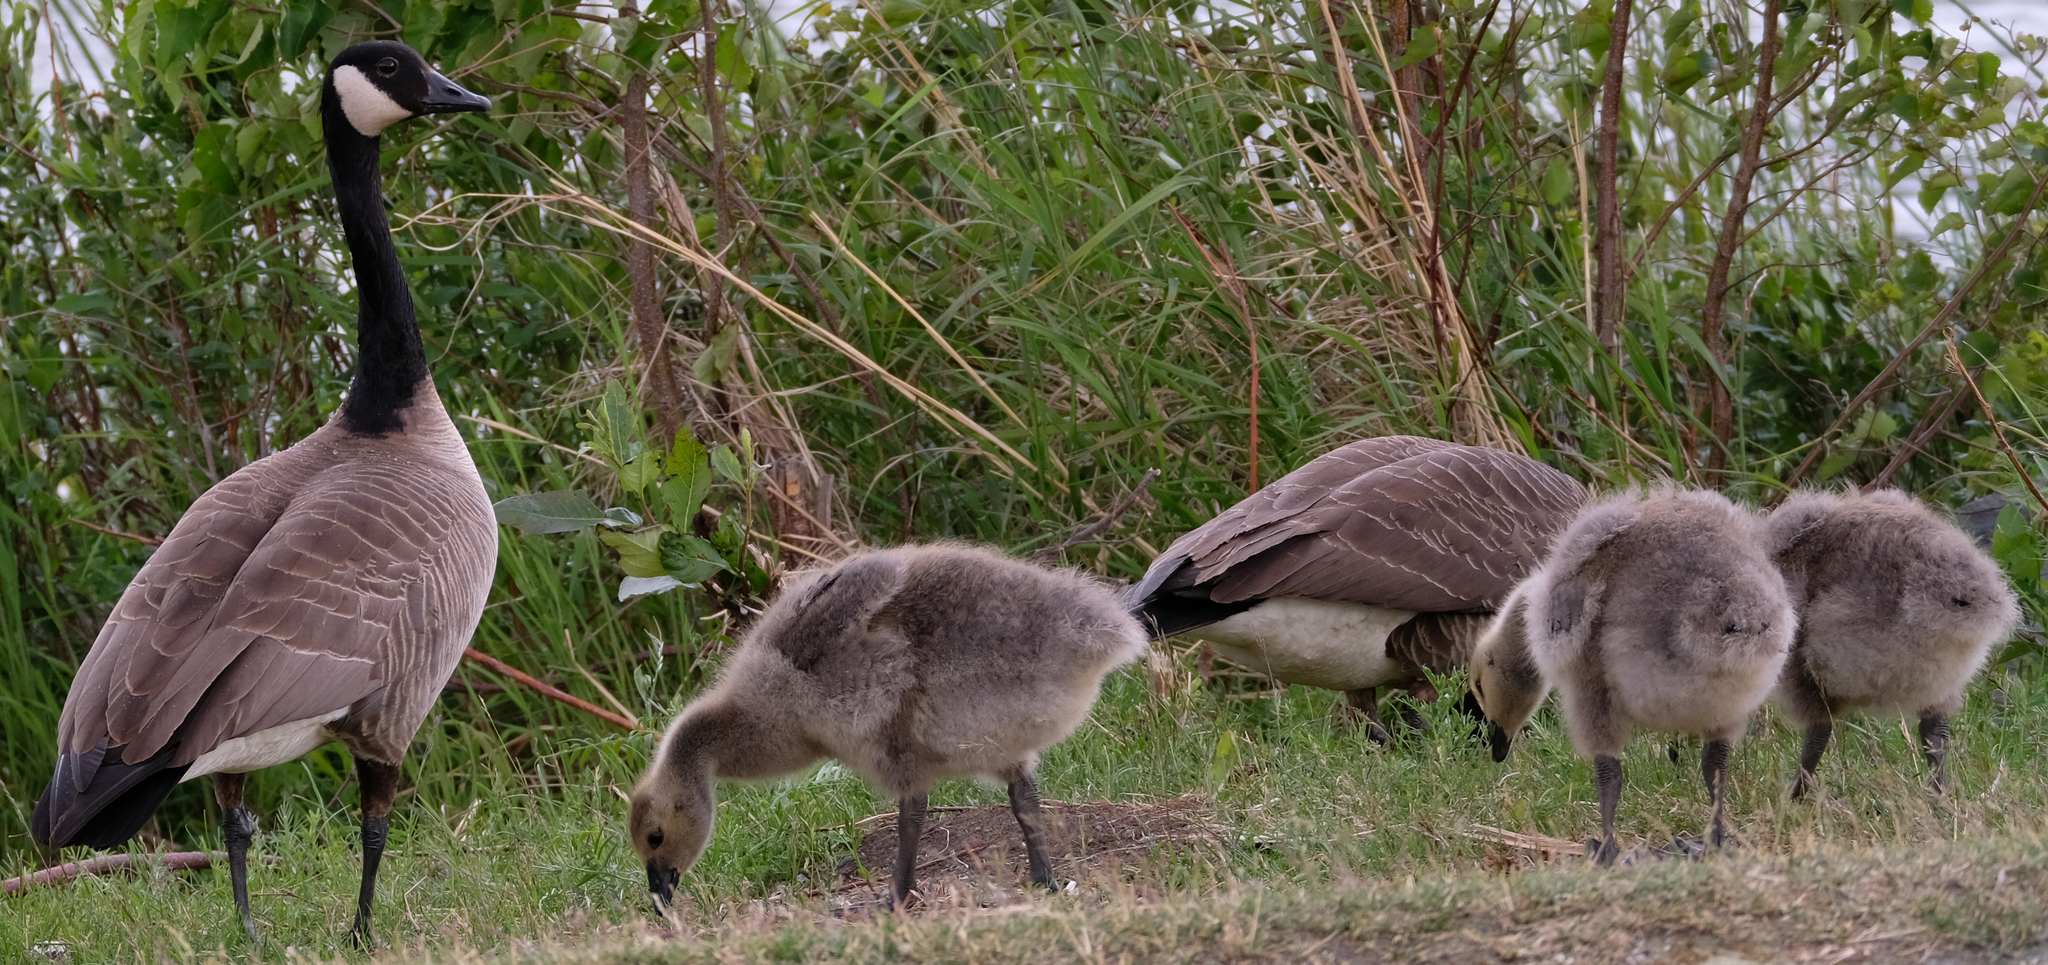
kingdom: Animalia
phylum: Chordata
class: Aves
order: Anseriformes
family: Anatidae
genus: Branta
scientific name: Branta canadensis
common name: Canada goose
